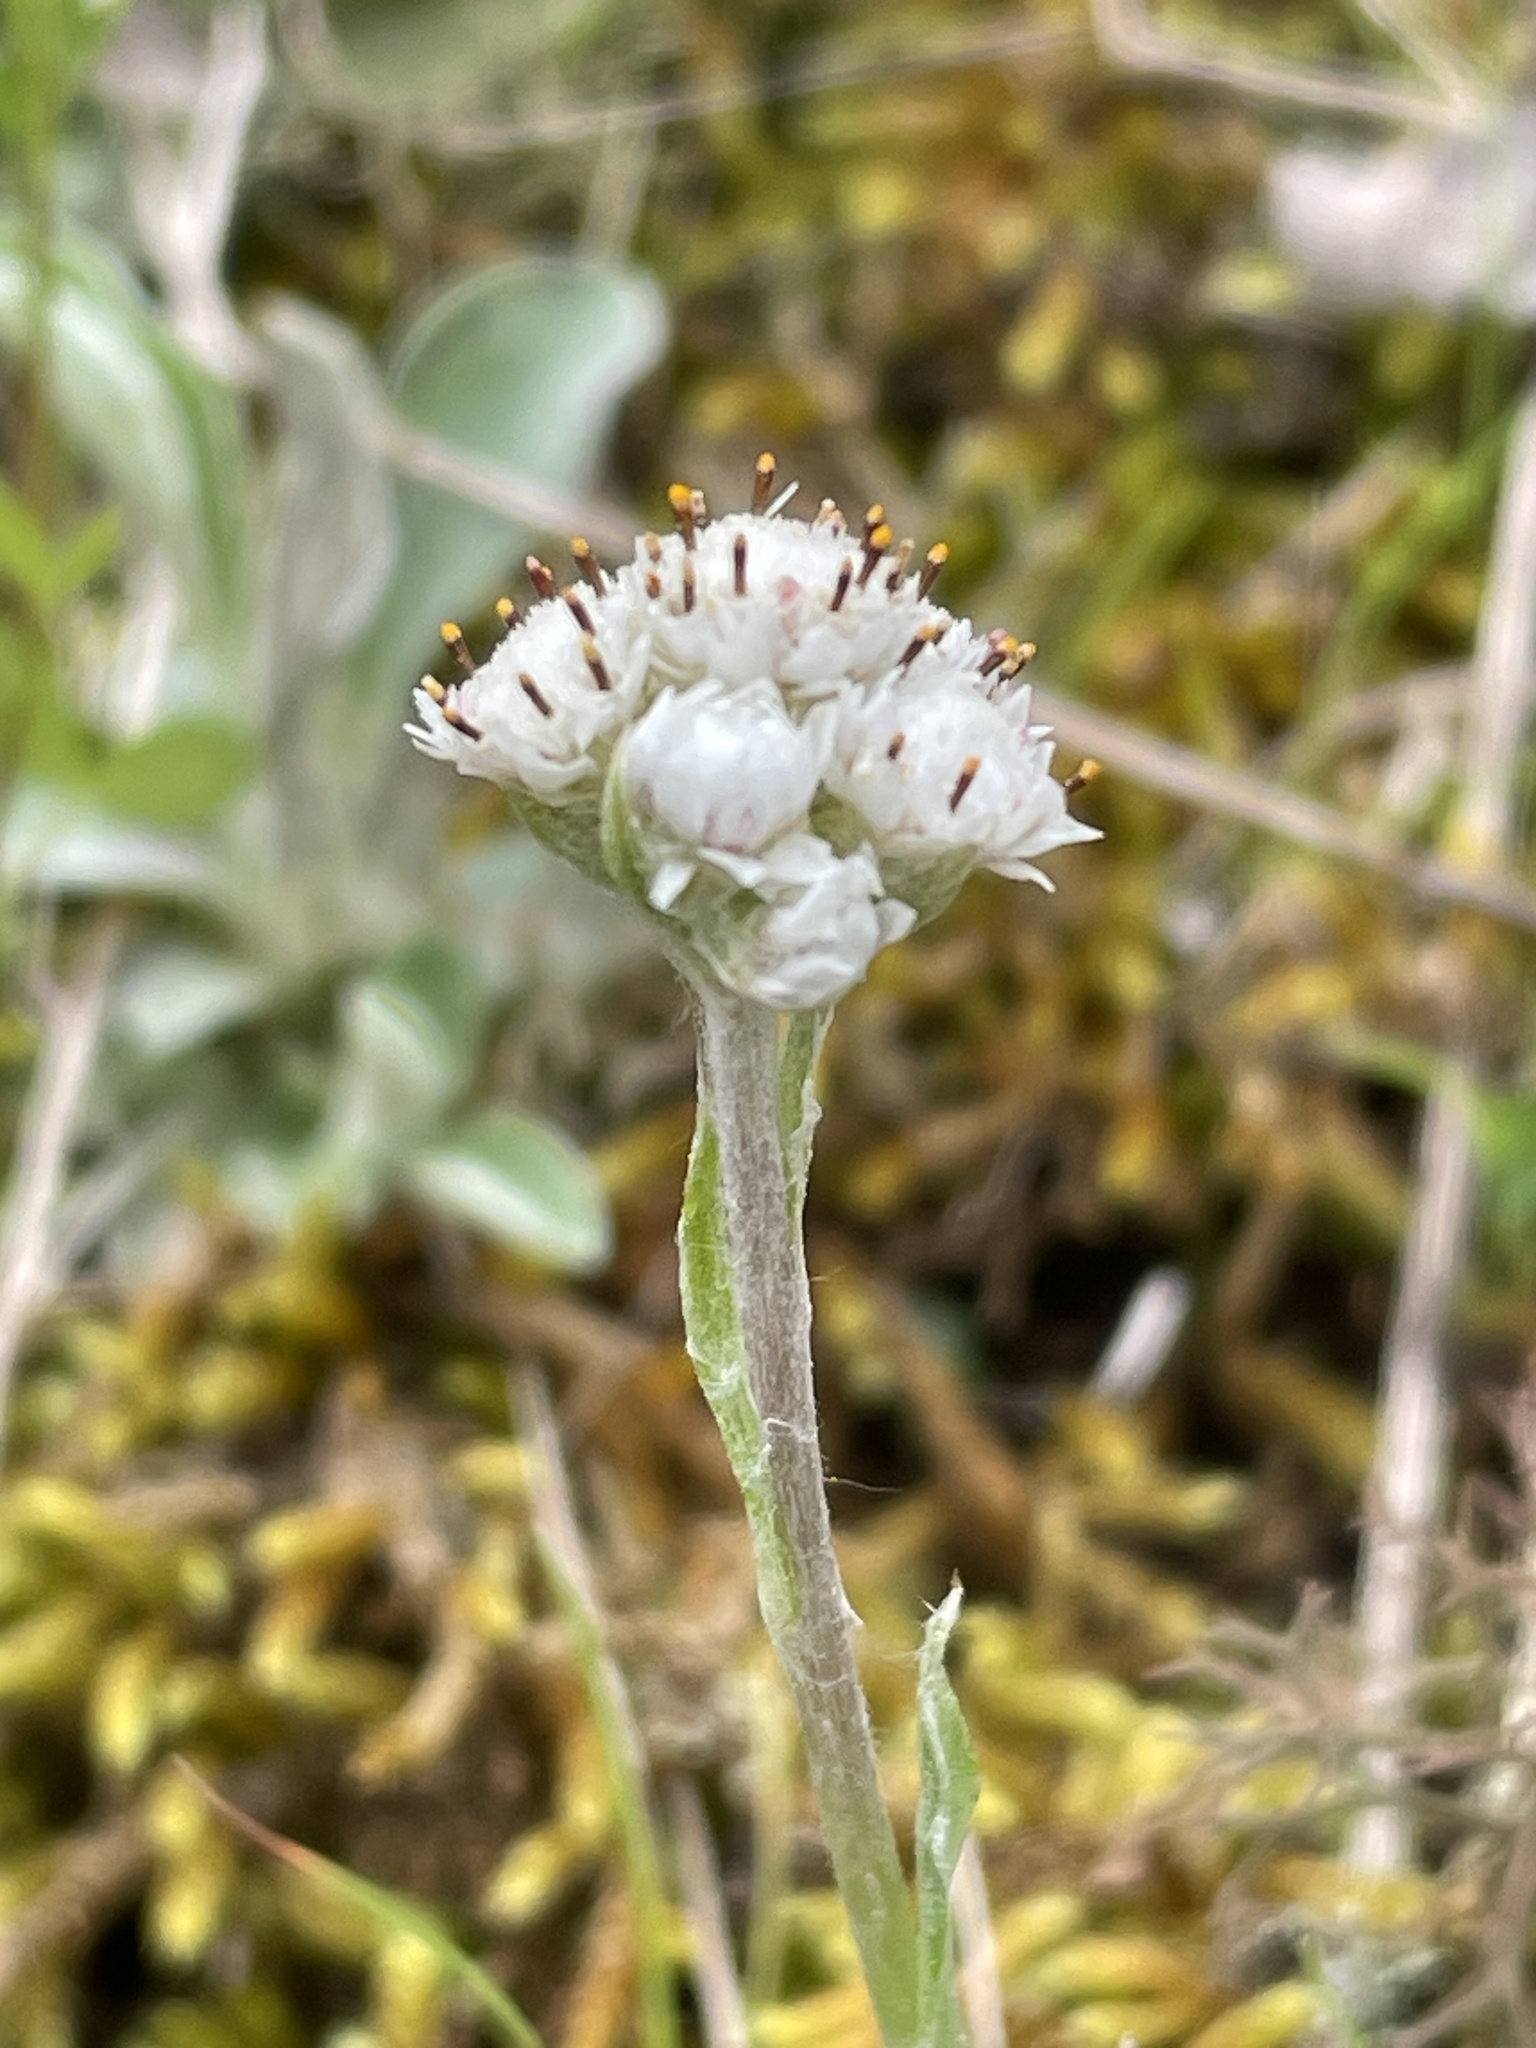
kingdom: Plantae
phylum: Tracheophyta
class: Magnoliopsida
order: Asterales
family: Asteraceae
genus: Antennaria
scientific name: Antennaria parlinii
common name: Parlin's pussytoes
